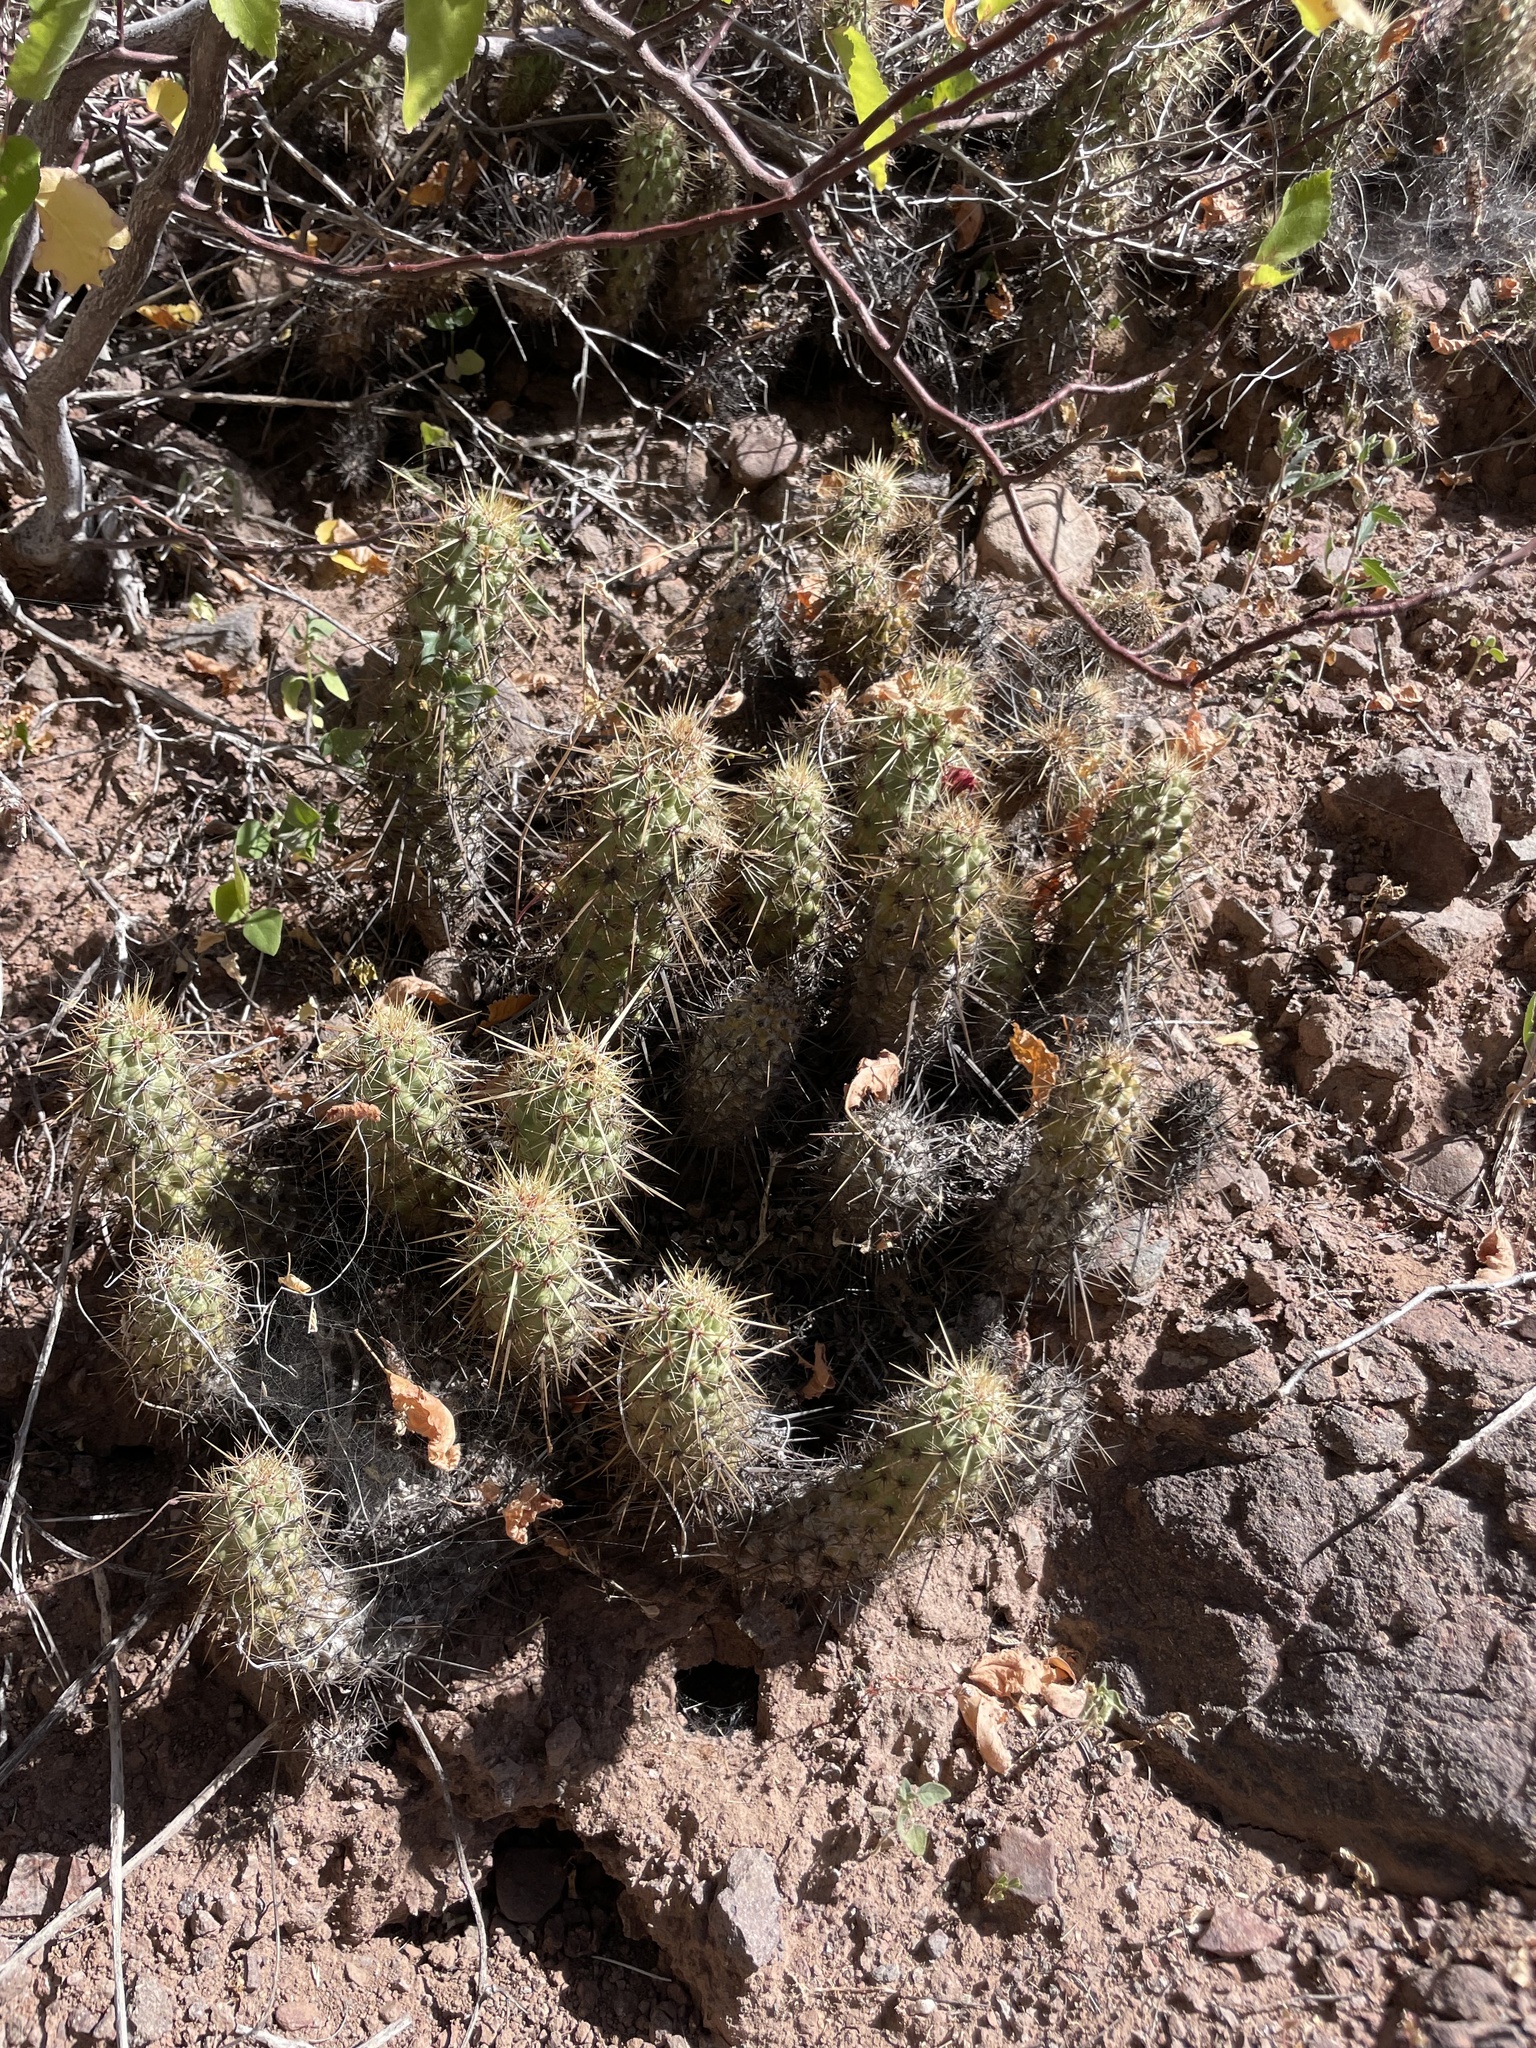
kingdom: Plantae
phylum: Tracheophyta
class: Magnoliopsida
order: Caryophyllales
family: Cactaceae
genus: Echinocereus
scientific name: Echinocereus brandegeei
